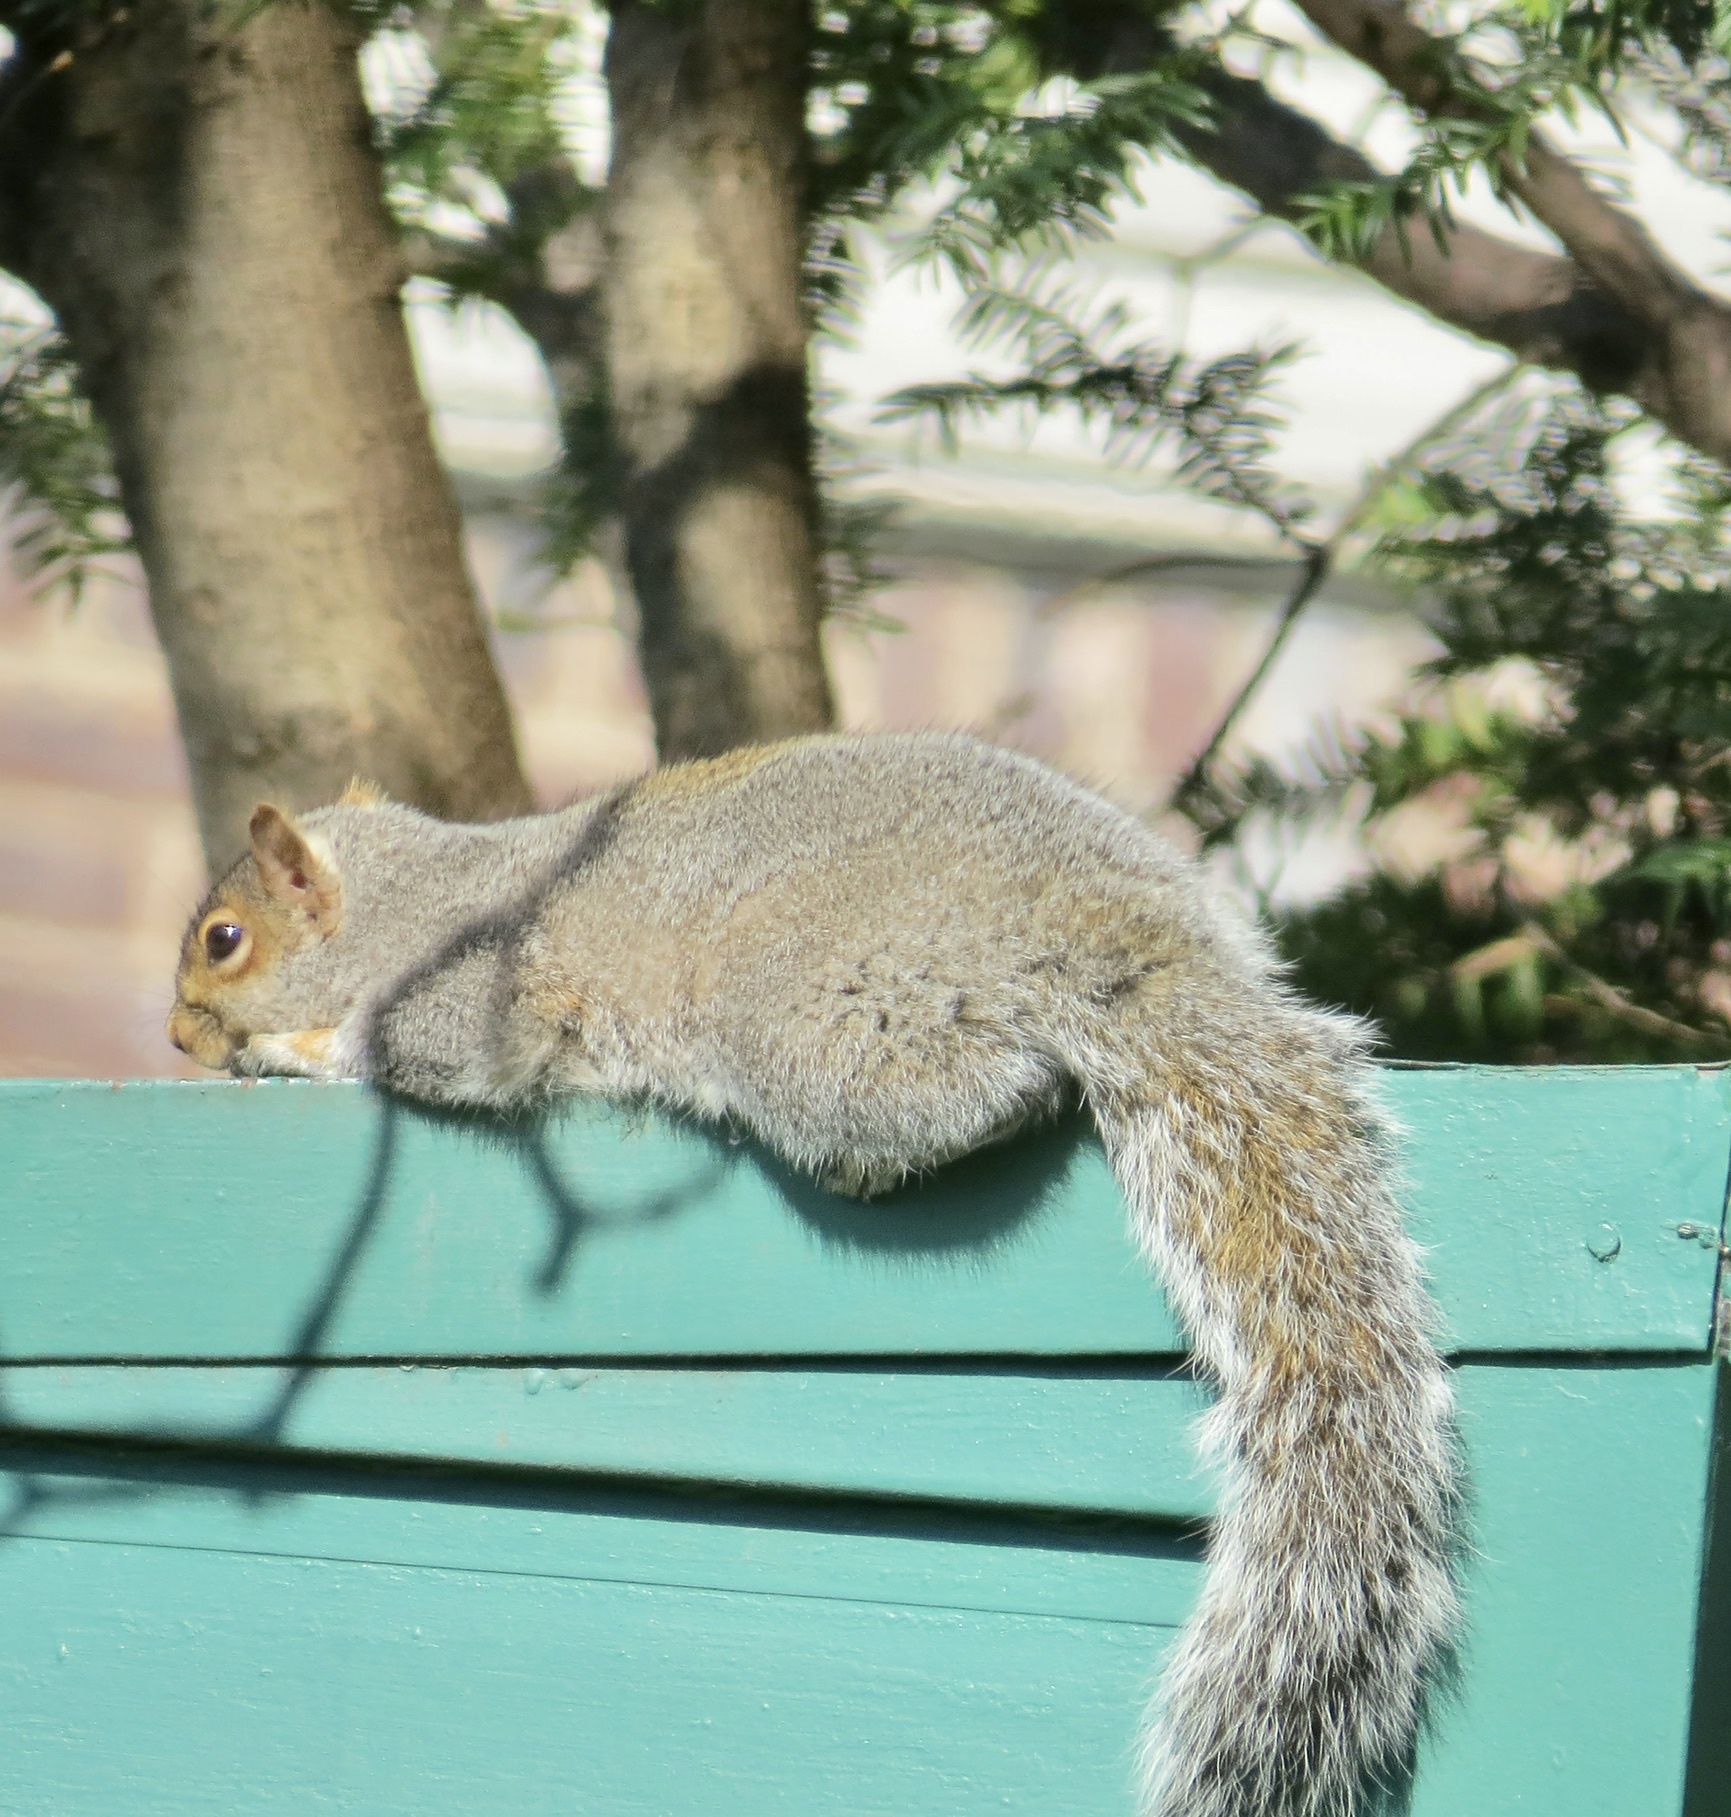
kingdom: Animalia
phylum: Chordata
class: Mammalia
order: Rodentia
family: Sciuridae
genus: Sciurus
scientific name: Sciurus carolinensis
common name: Eastern gray squirrel
